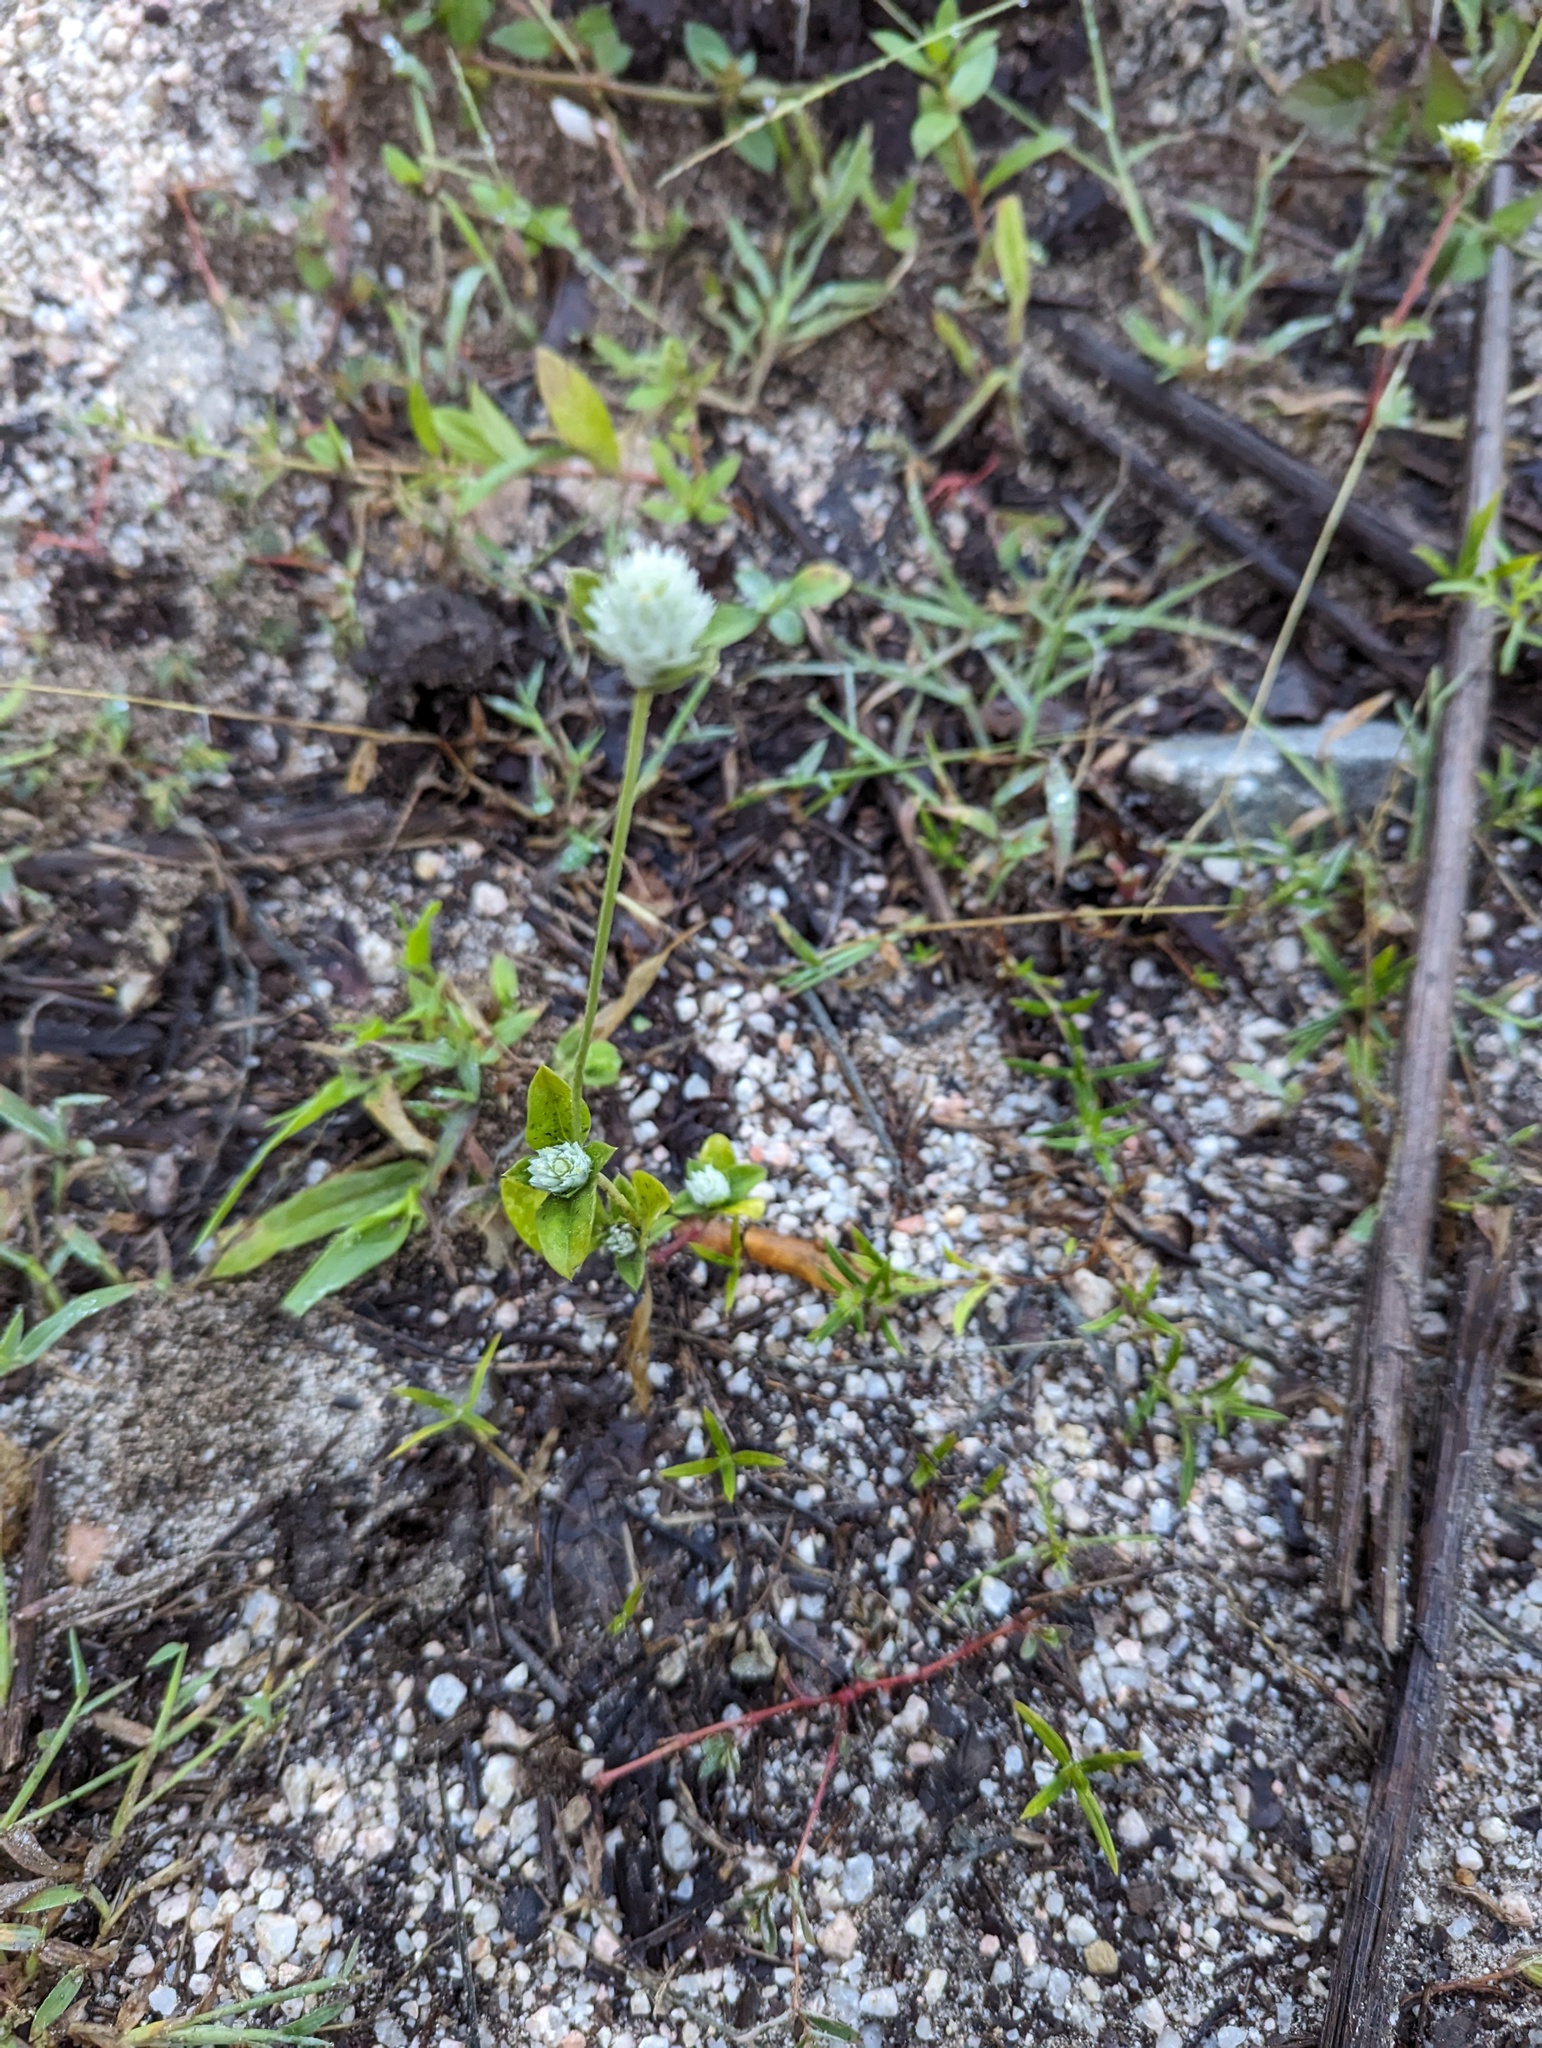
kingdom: Plantae
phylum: Tracheophyta
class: Magnoliopsida
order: Caryophyllales
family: Amaranthaceae
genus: Gomphrena
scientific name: Gomphrena nitida
